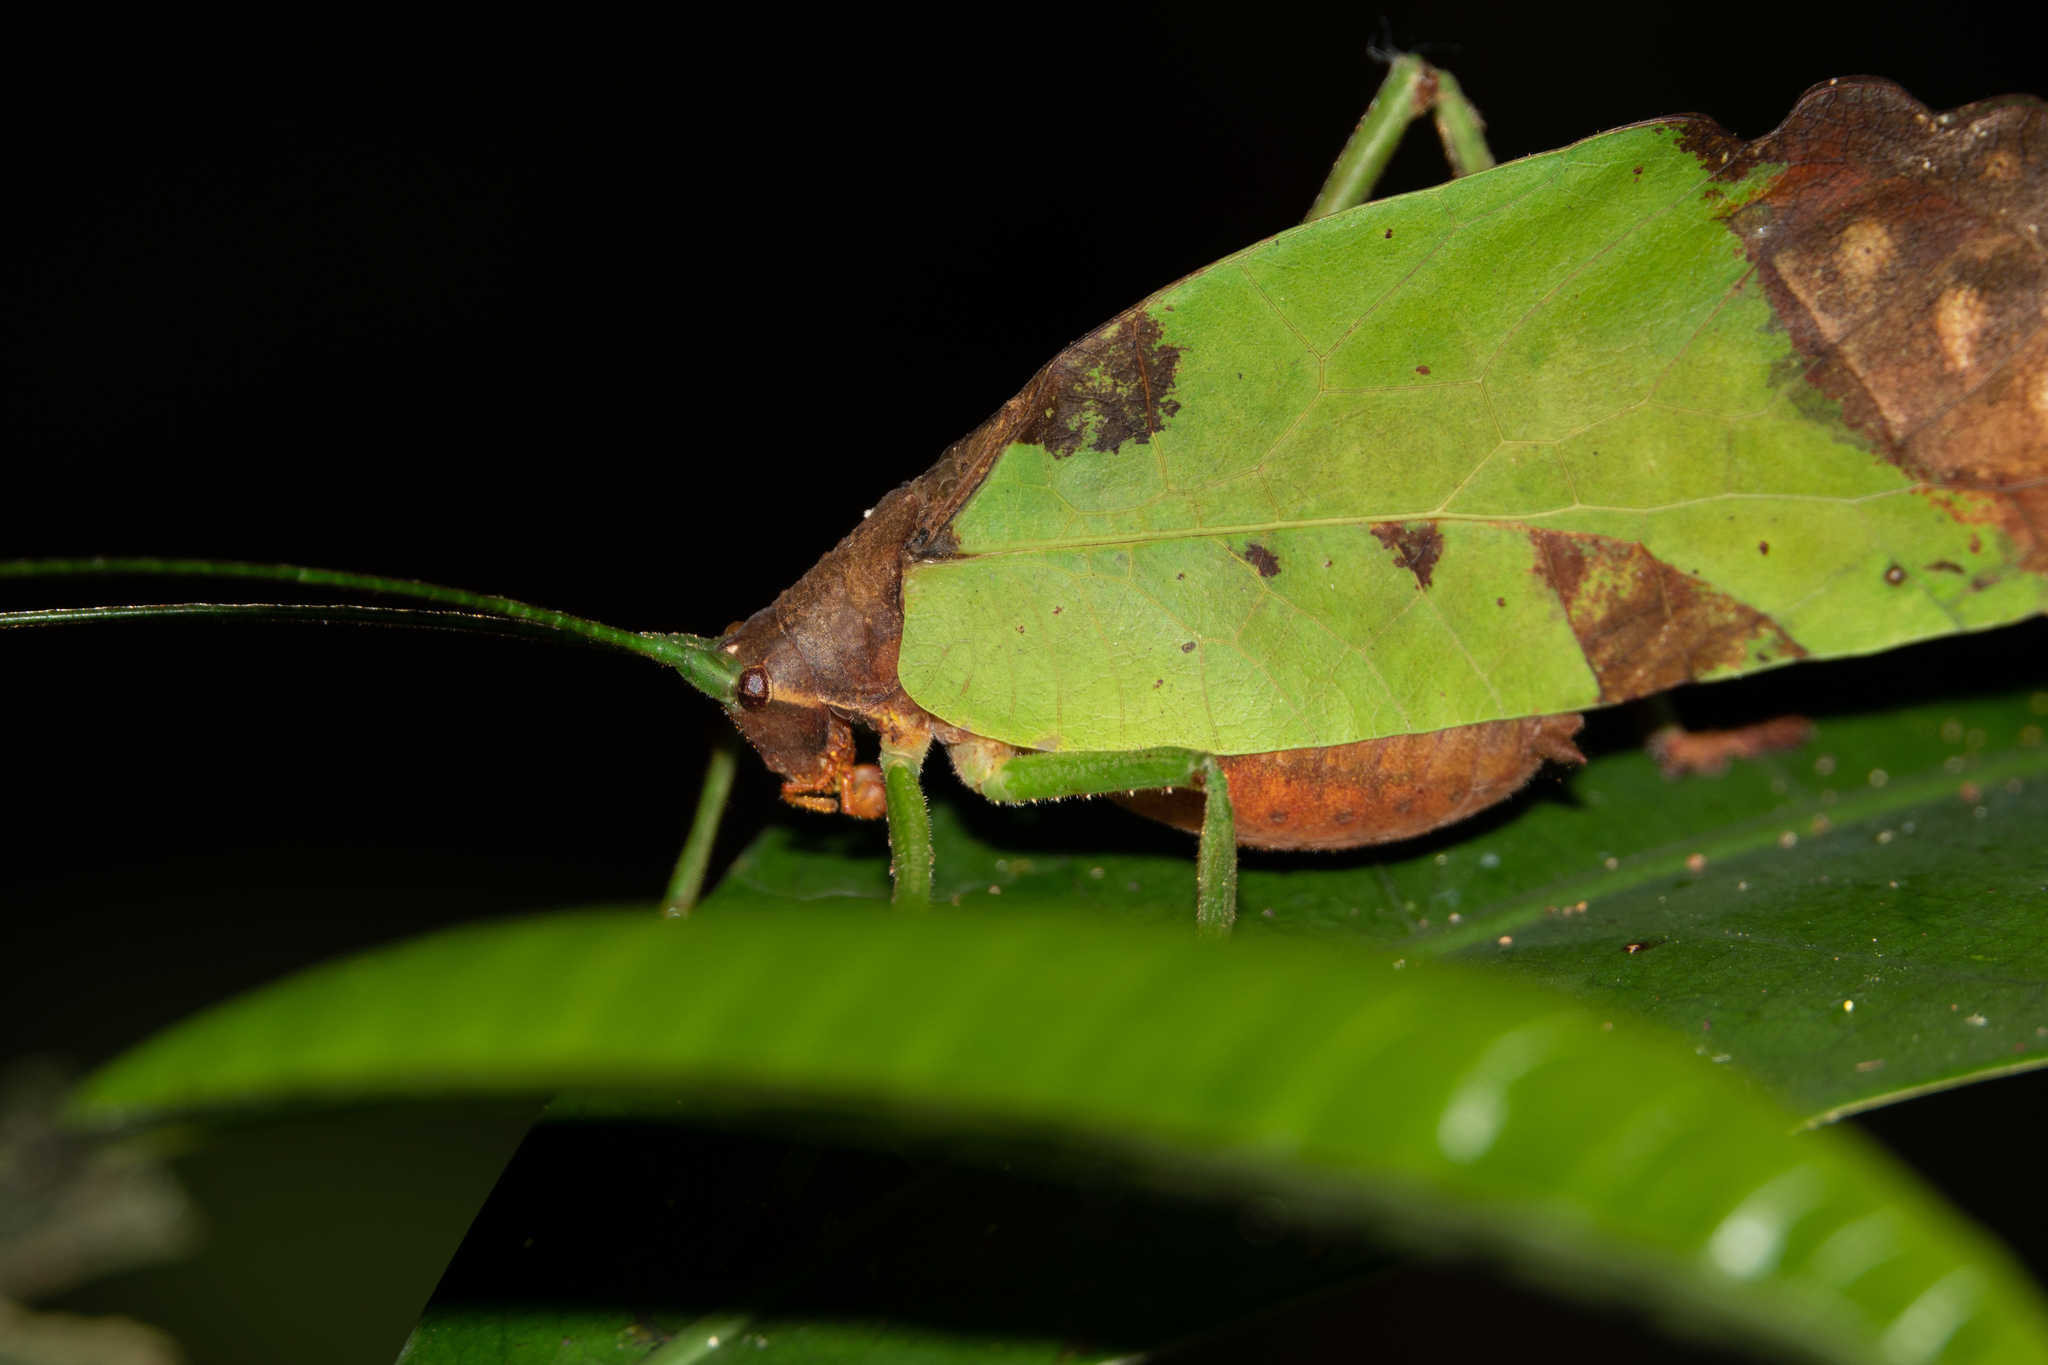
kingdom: Animalia
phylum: Arthropoda
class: Insecta
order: Orthoptera
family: Tettigoniidae
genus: Pterochroza
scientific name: Pterochroza ocellata
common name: Peacock katydid
